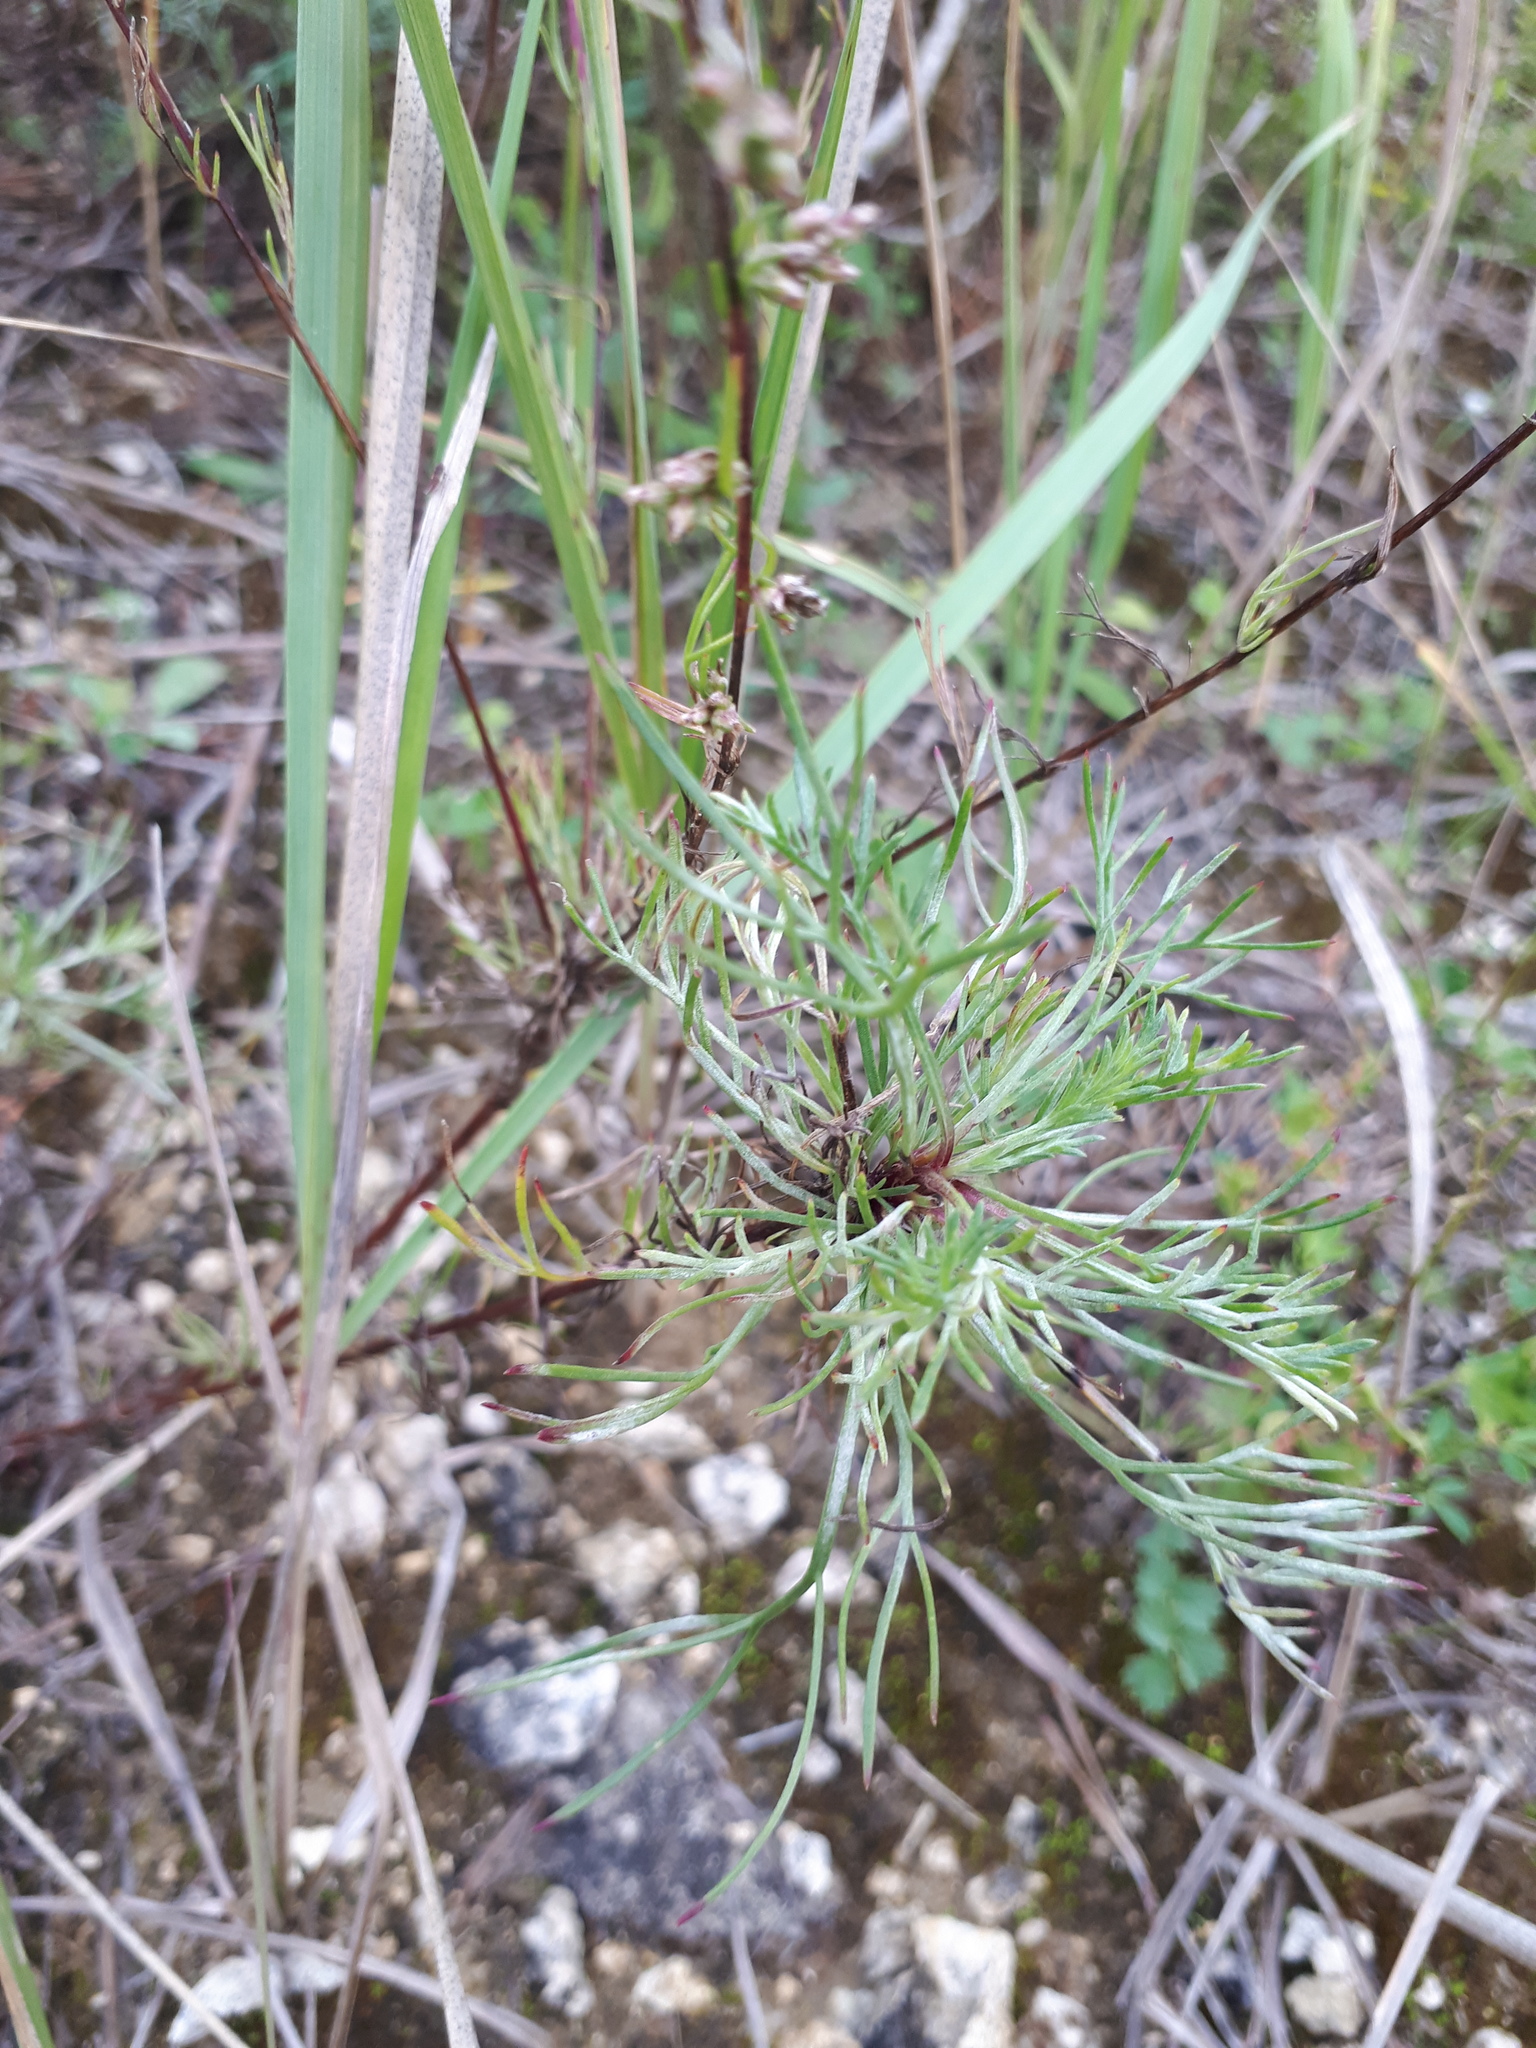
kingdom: Plantae
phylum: Tracheophyta
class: Magnoliopsida
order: Asterales
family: Asteraceae
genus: Artemisia
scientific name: Artemisia marschalliana
